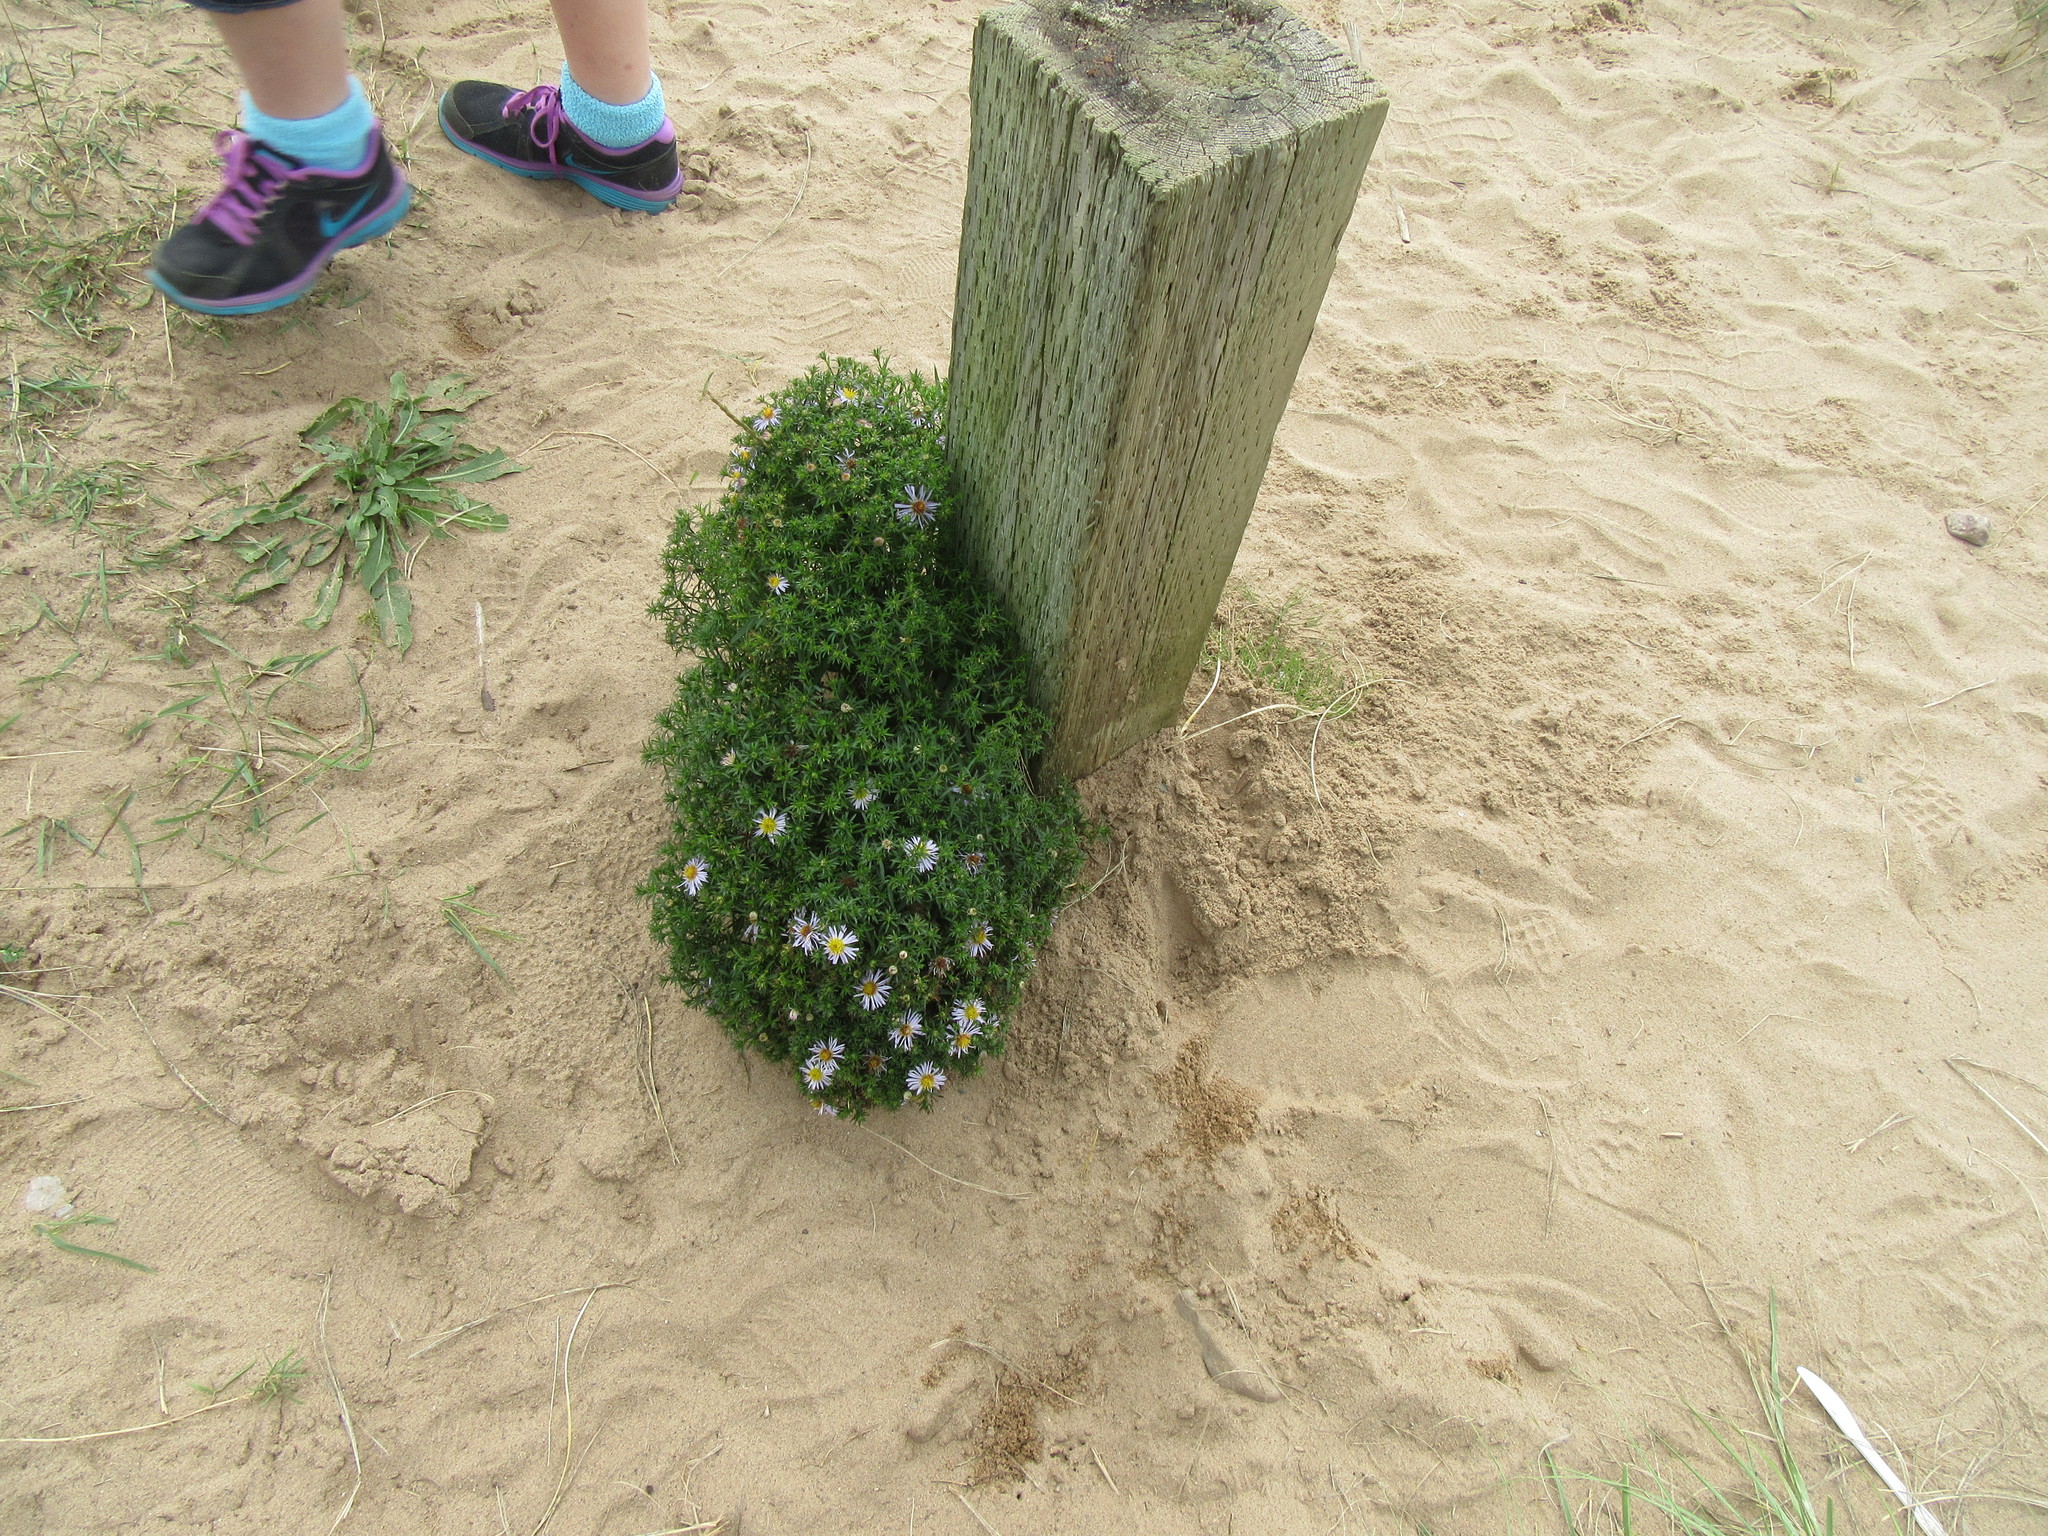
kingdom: Plantae
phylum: Tracheophyta
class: Magnoliopsida
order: Asterales
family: Asteraceae
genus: Symphyotrichum
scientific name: Symphyotrichum novi-belgii
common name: Michaelmas daisy
